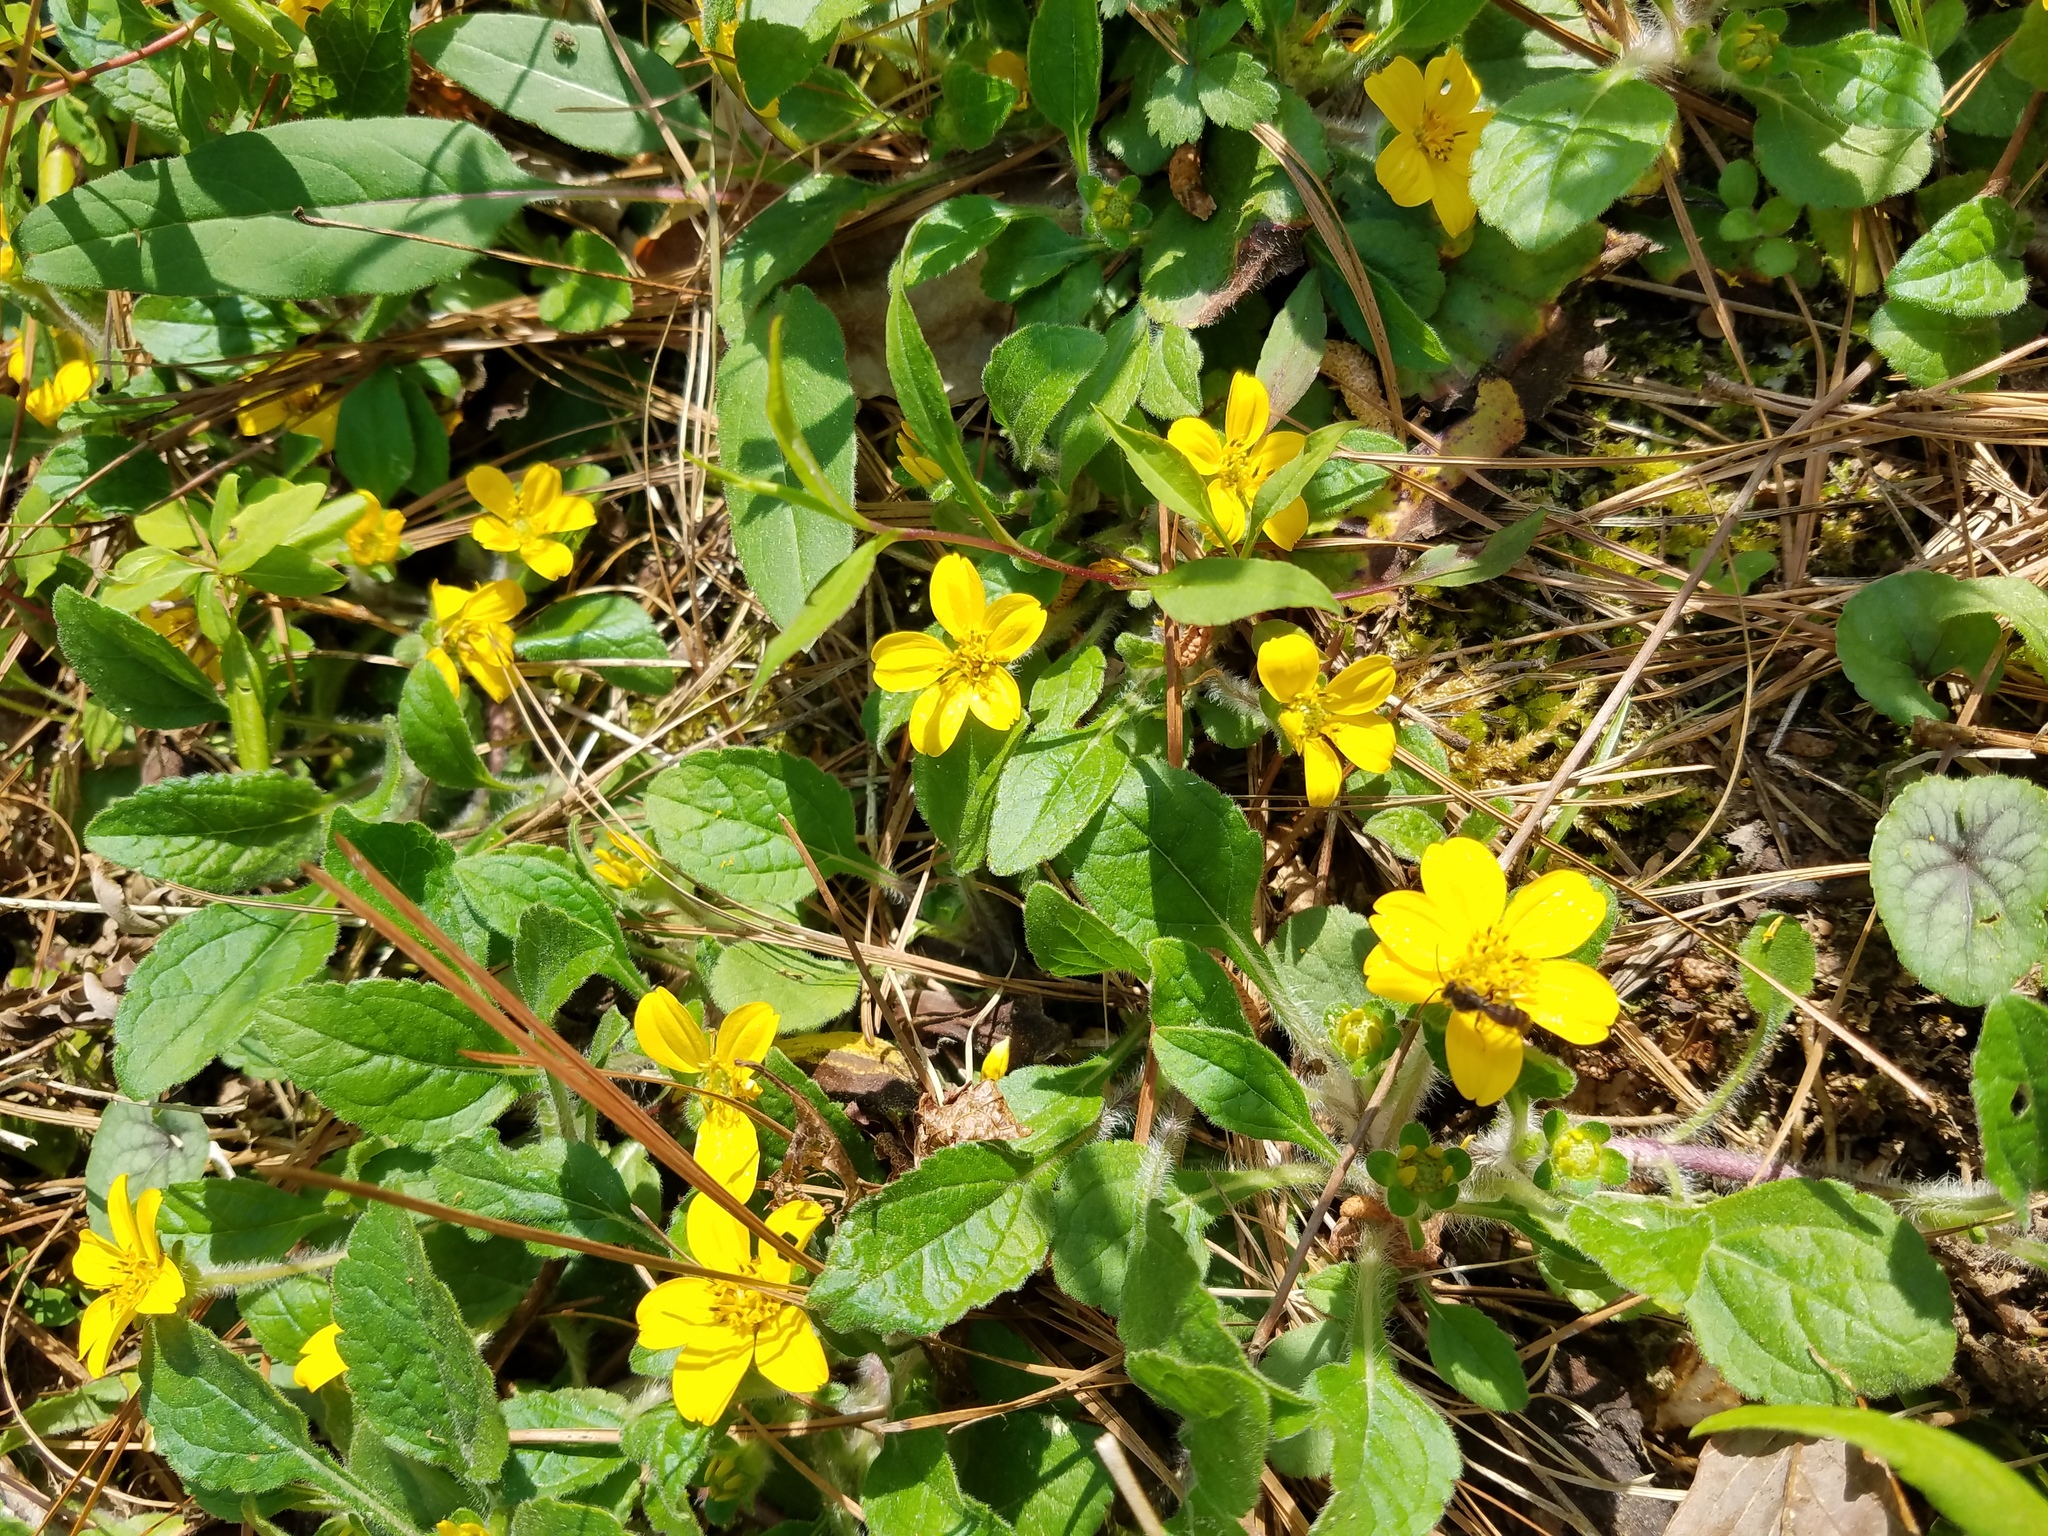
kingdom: Plantae
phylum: Tracheophyta
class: Magnoliopsida
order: Asterales
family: Asteraceae
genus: Chrysogonum
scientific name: Chrysogonum virginianum
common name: Golden-knee
